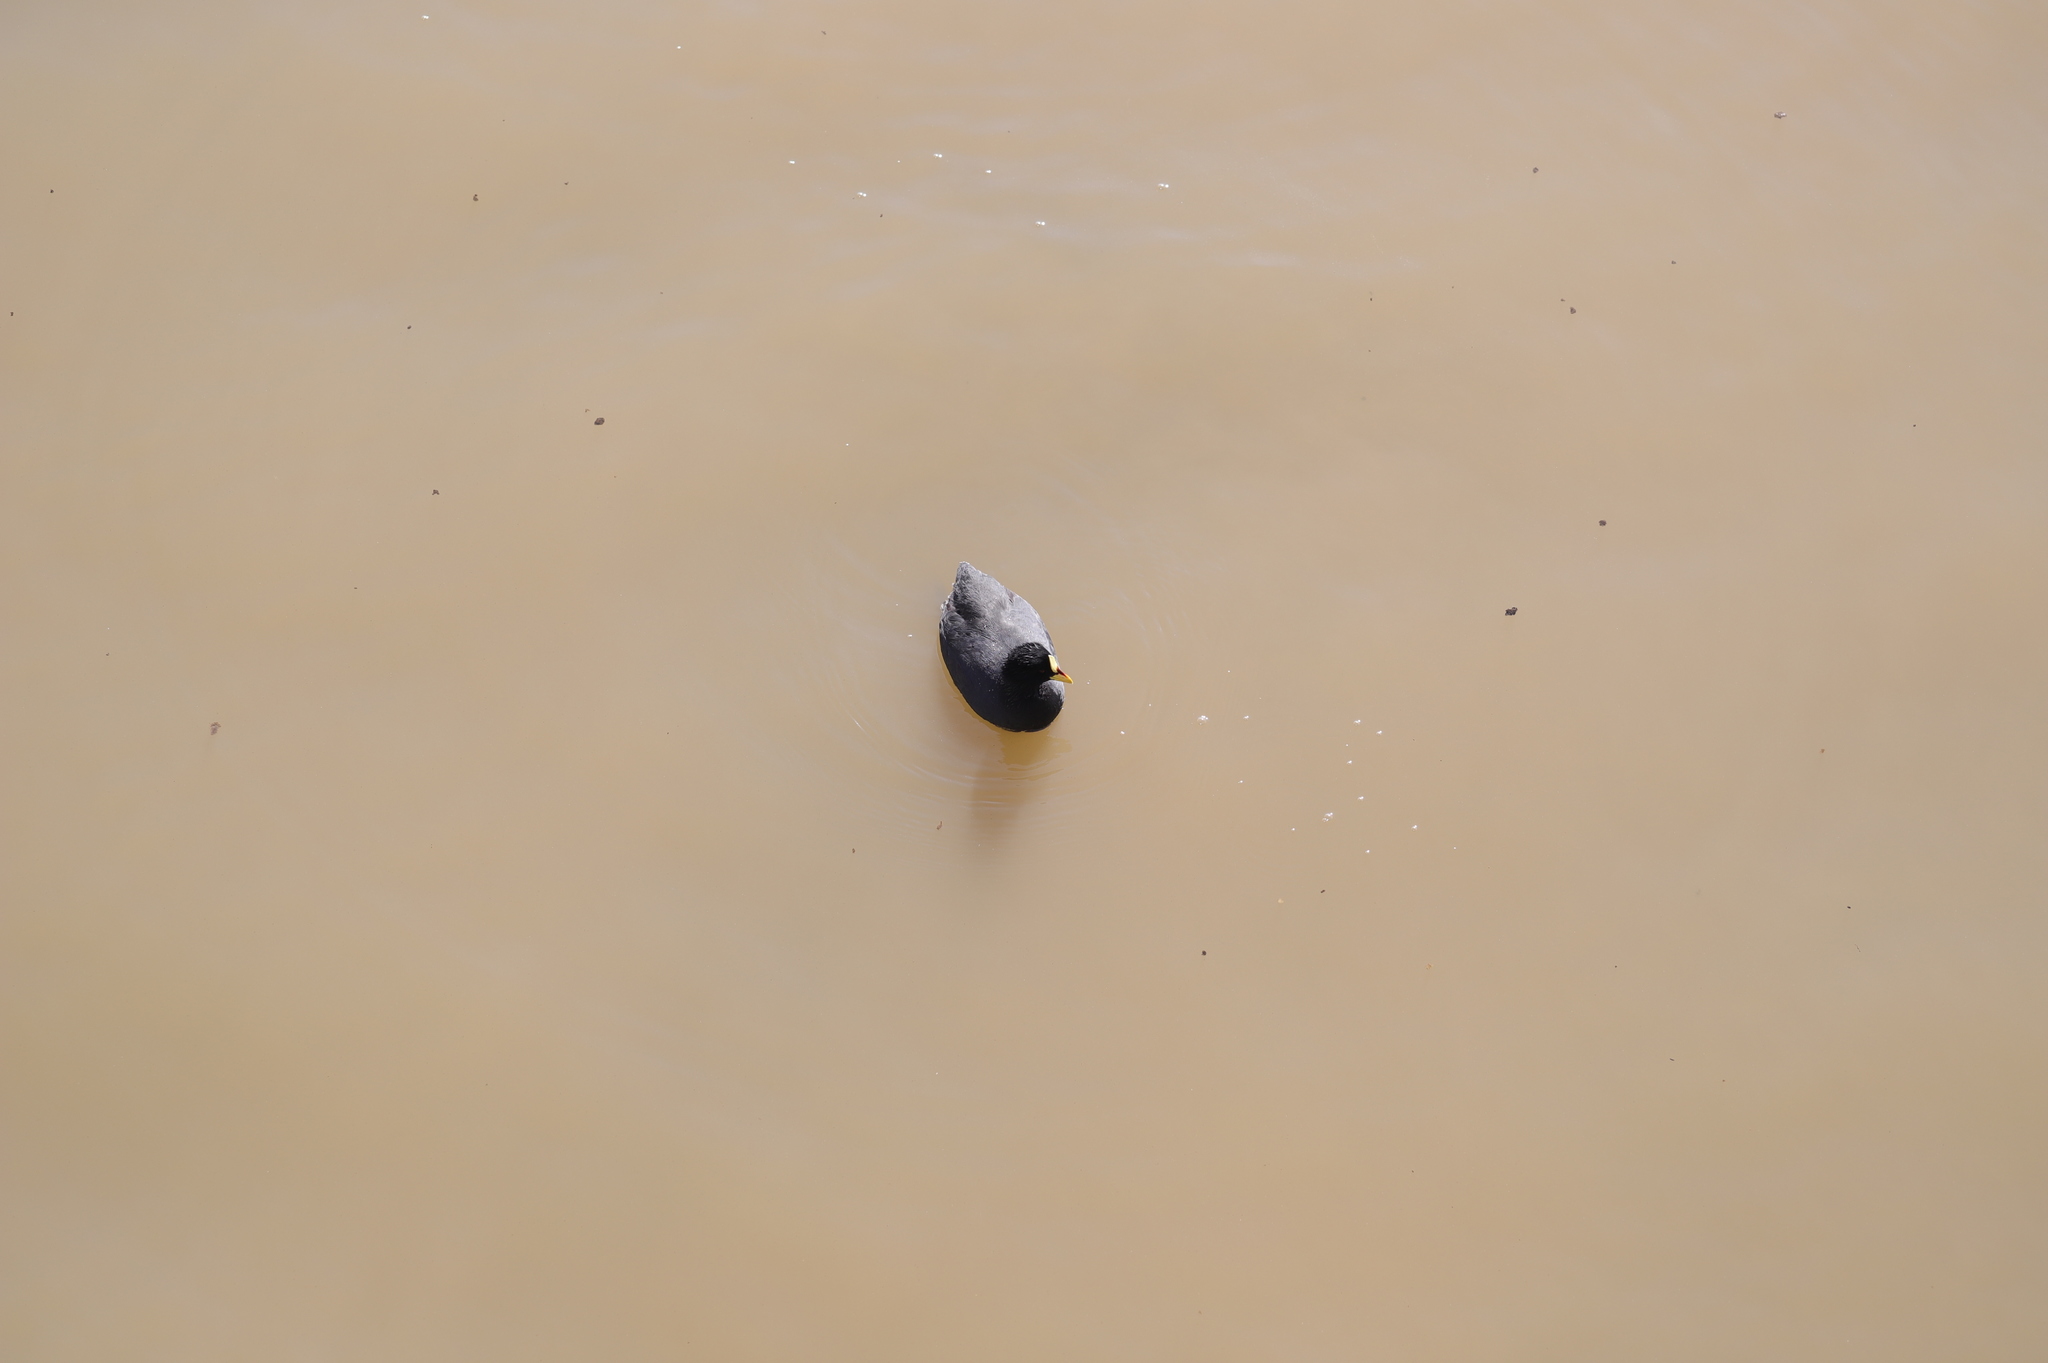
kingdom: Animalia
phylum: Chordata
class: Aves
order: Gruiformes
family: Rallidae
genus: Fulica
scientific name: Fulica armillata
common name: Red-gartered coot
